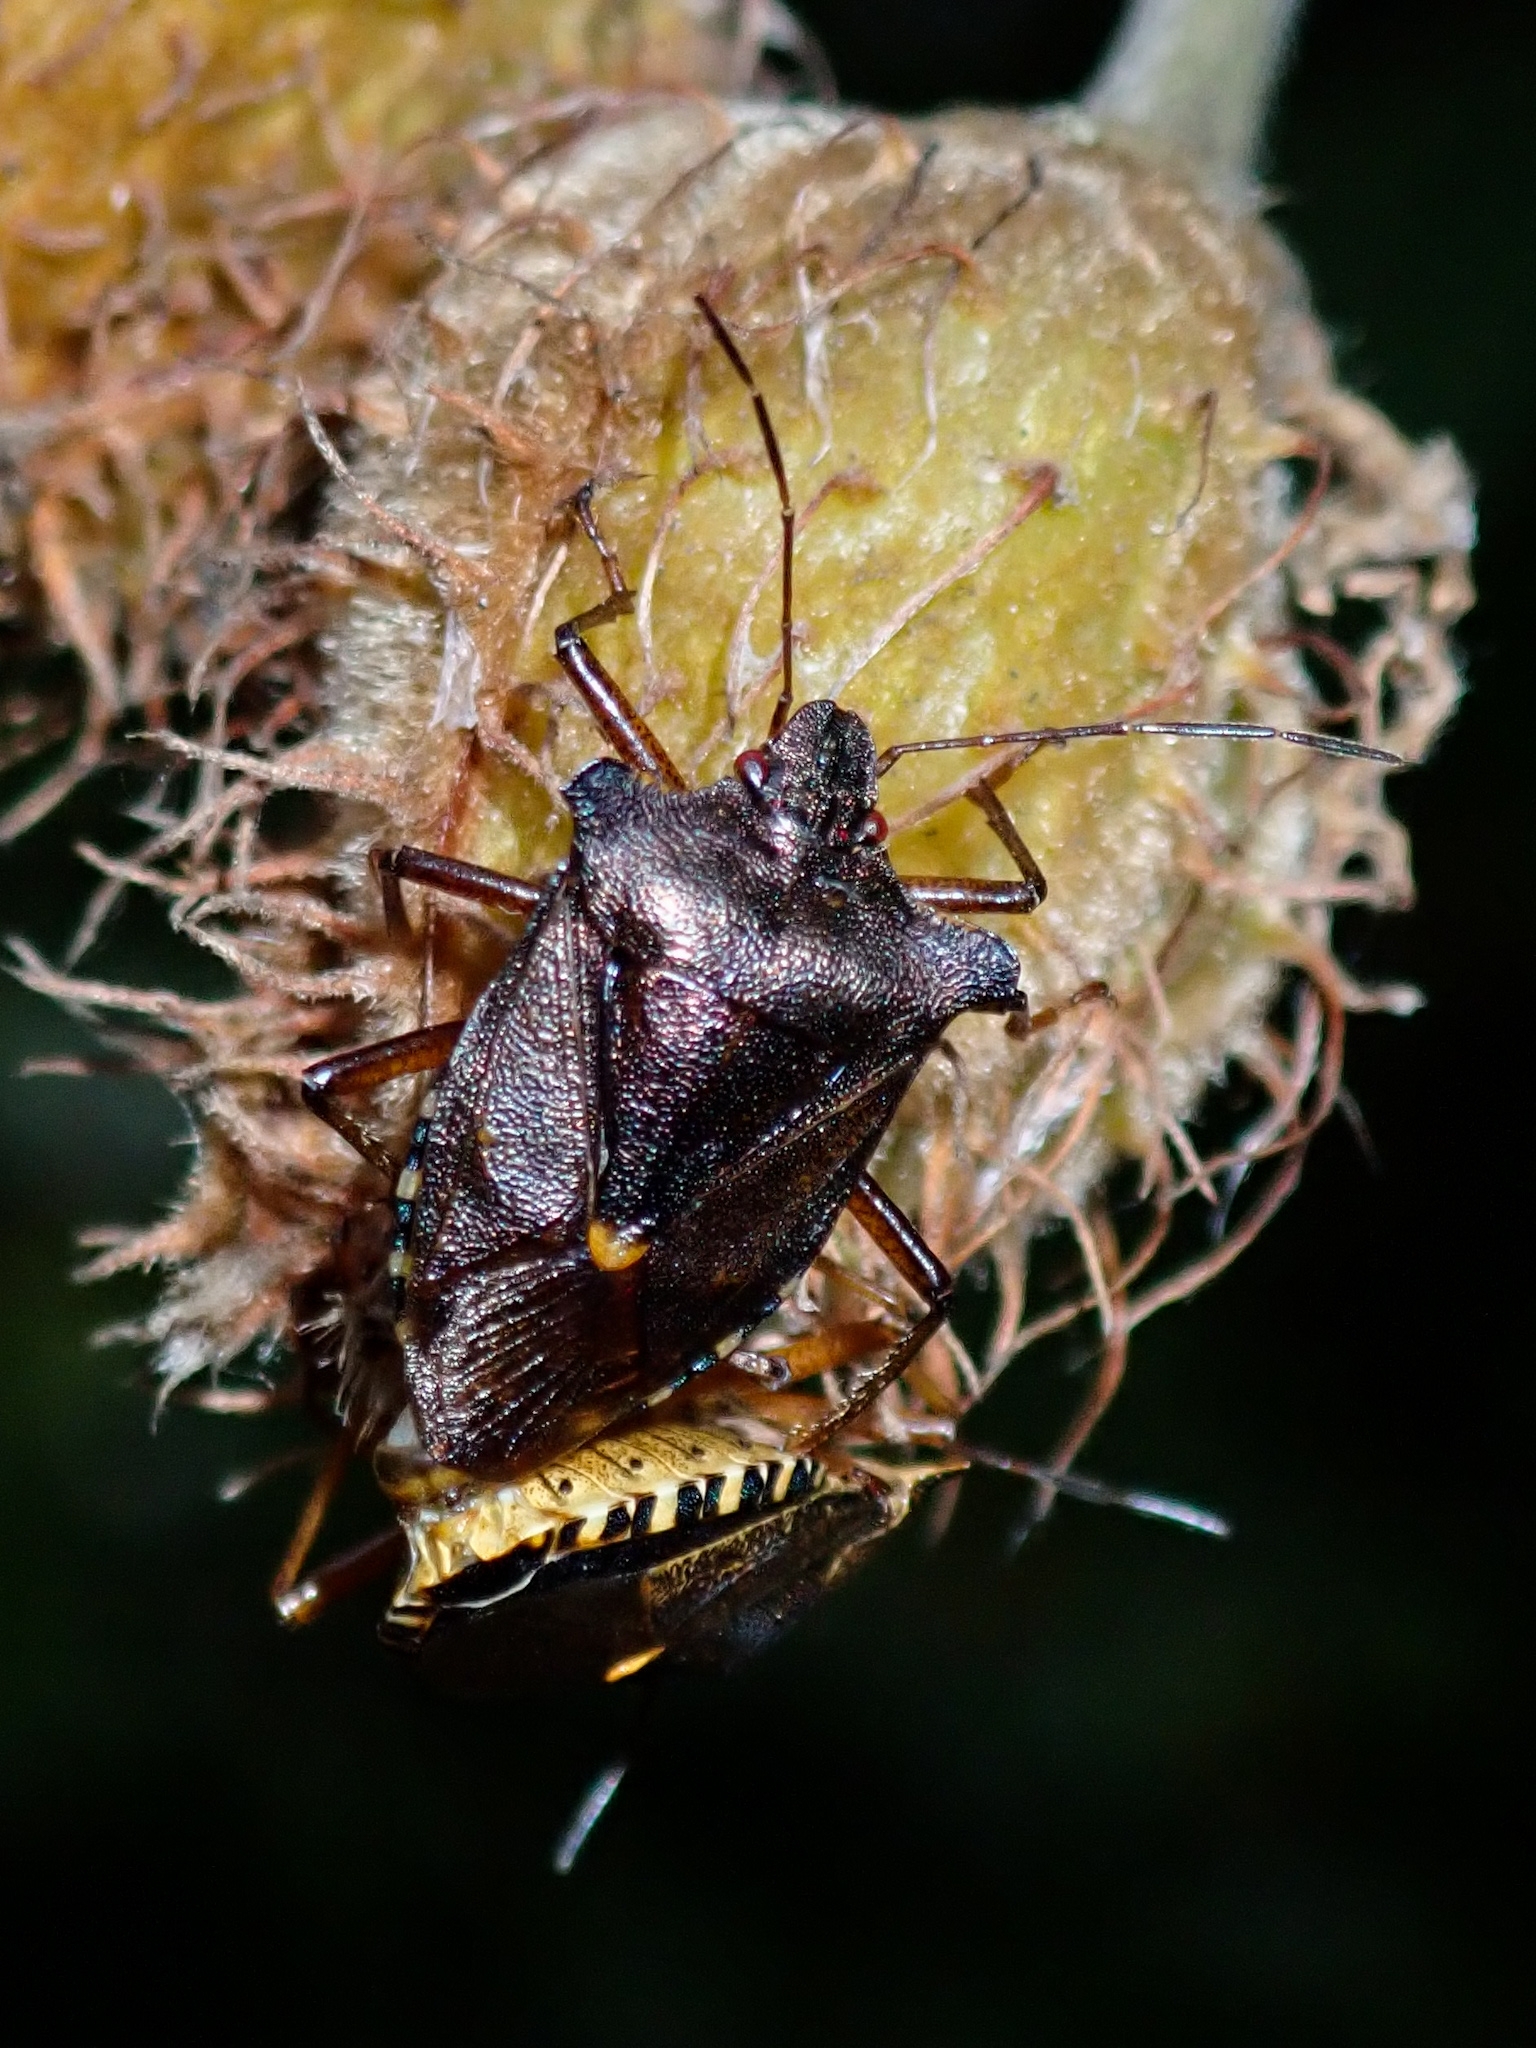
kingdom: Animalia
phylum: Arthropoda
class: Insecta
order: Hemiptera
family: Pentatomidae
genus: Pentatoma
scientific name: Pentatoma rufipes
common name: Forest bug
